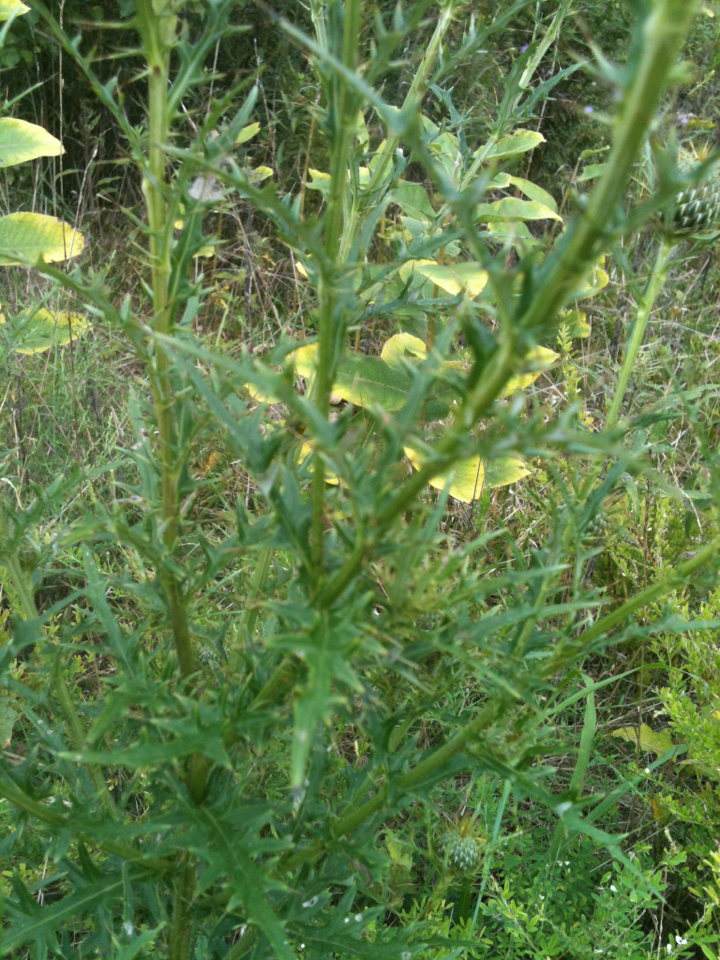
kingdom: Plantae
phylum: Tracheophyta
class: Magnoliopsida
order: Asterales
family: Asteraceae
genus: Cirsium
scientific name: Cirsium discolor
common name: Field thistle
